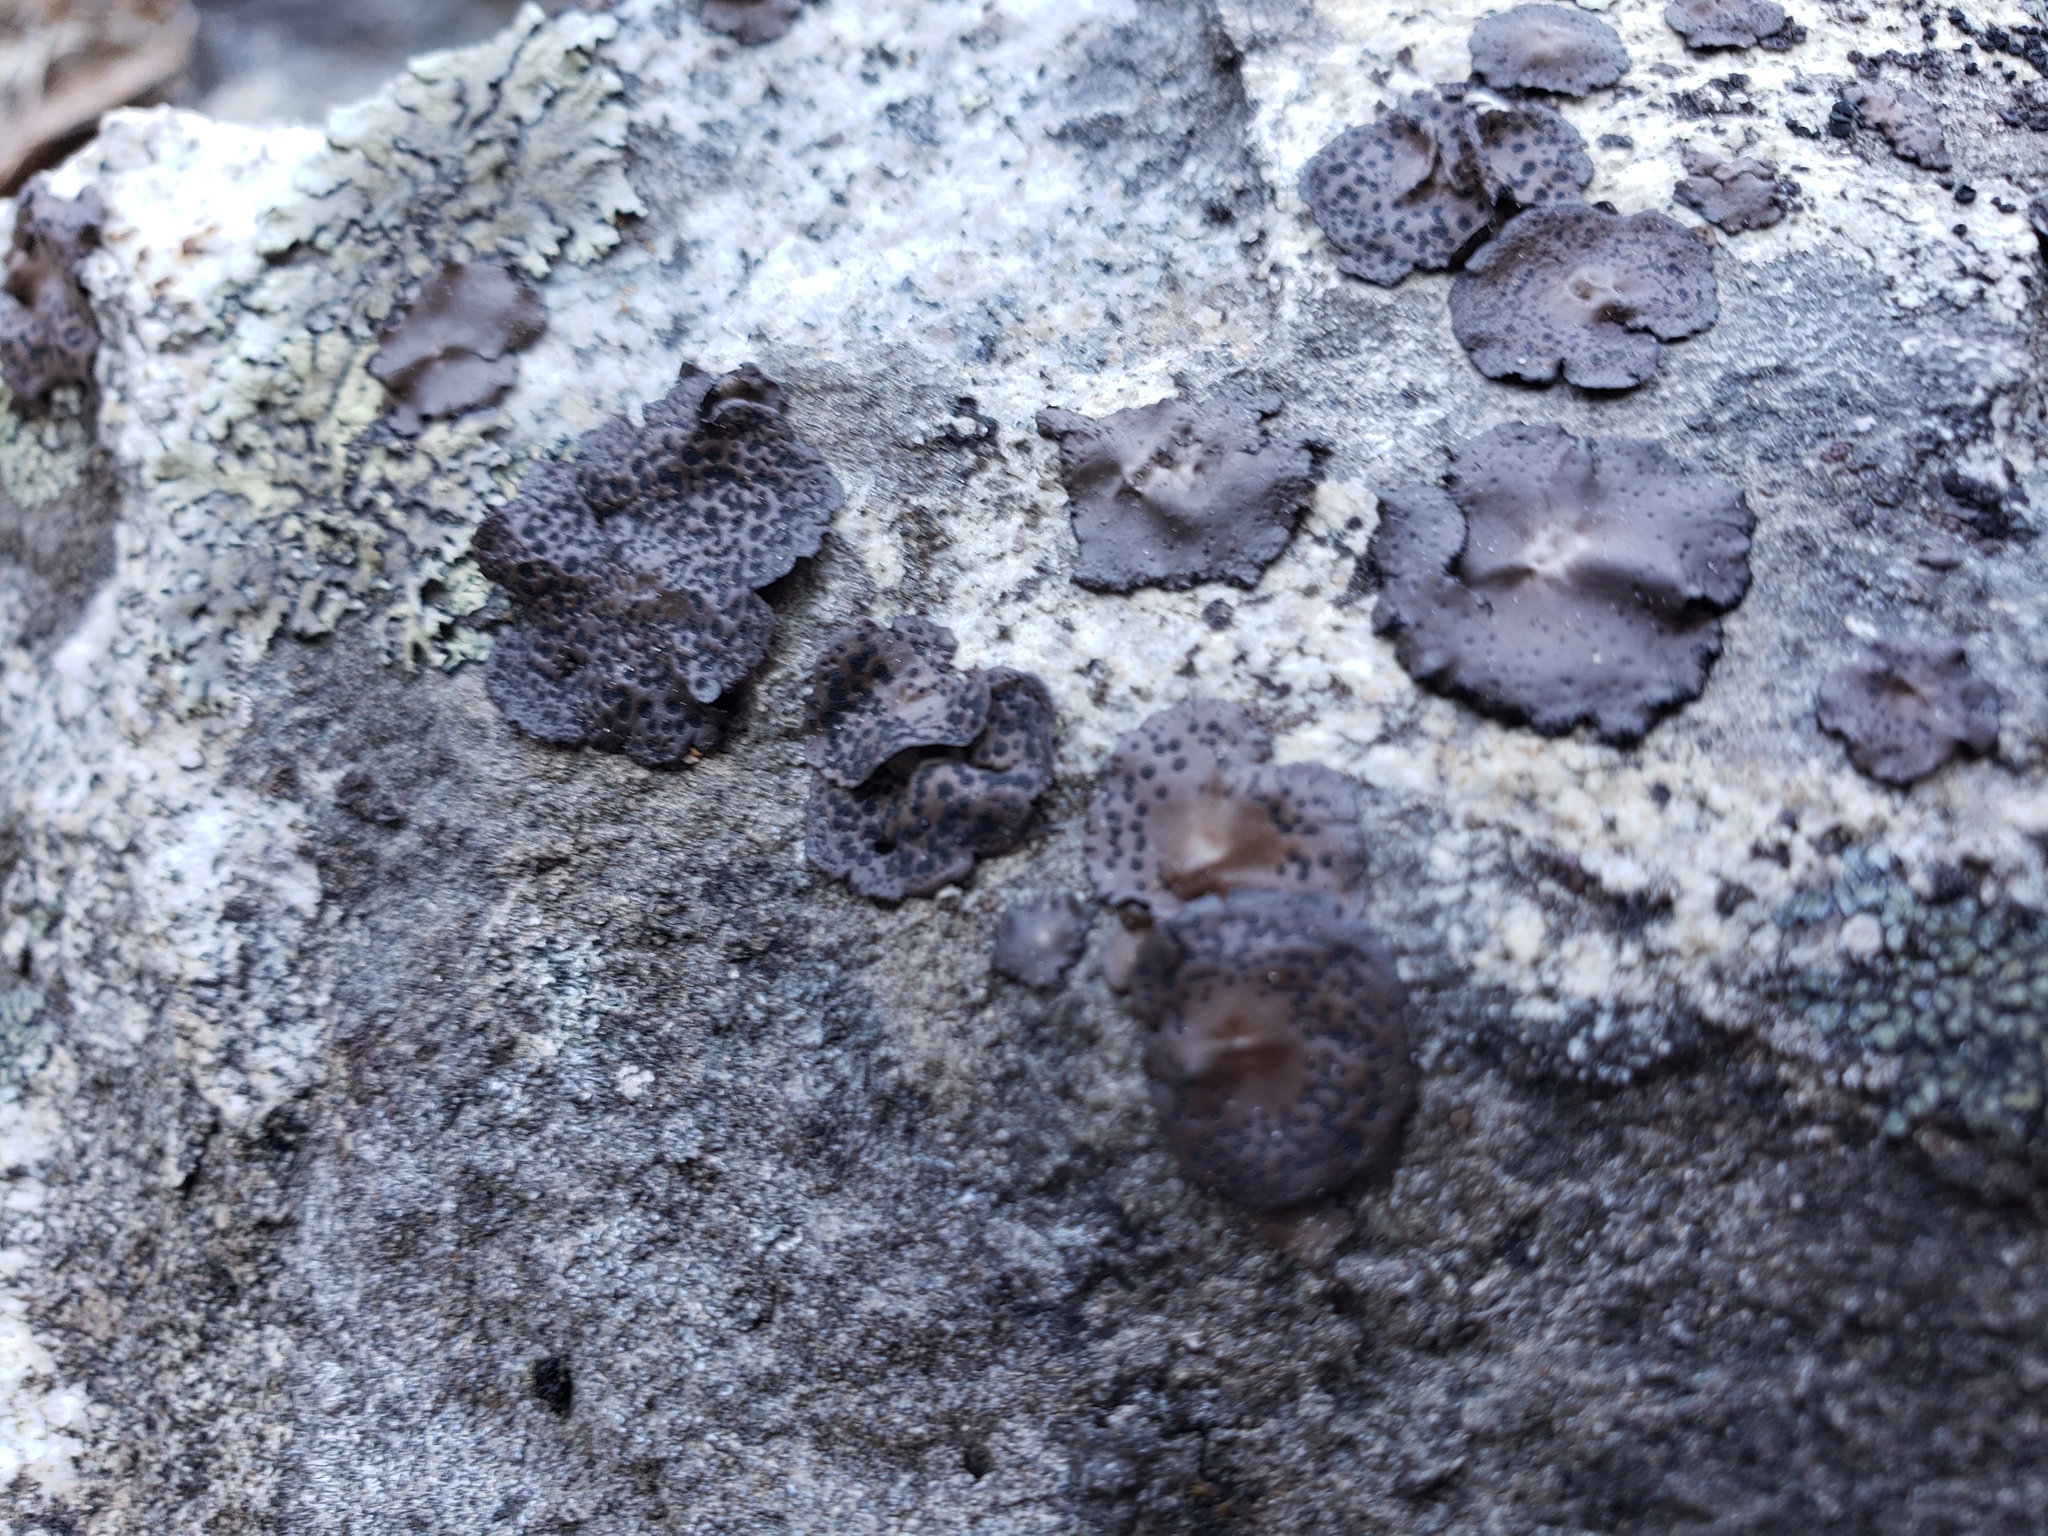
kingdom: Fungi
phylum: Ascomycota
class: Lecanoromycetes
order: Umbilicariales
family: Umbilicariaceae
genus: Umbilicaria
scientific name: Umbilicaria phaea
